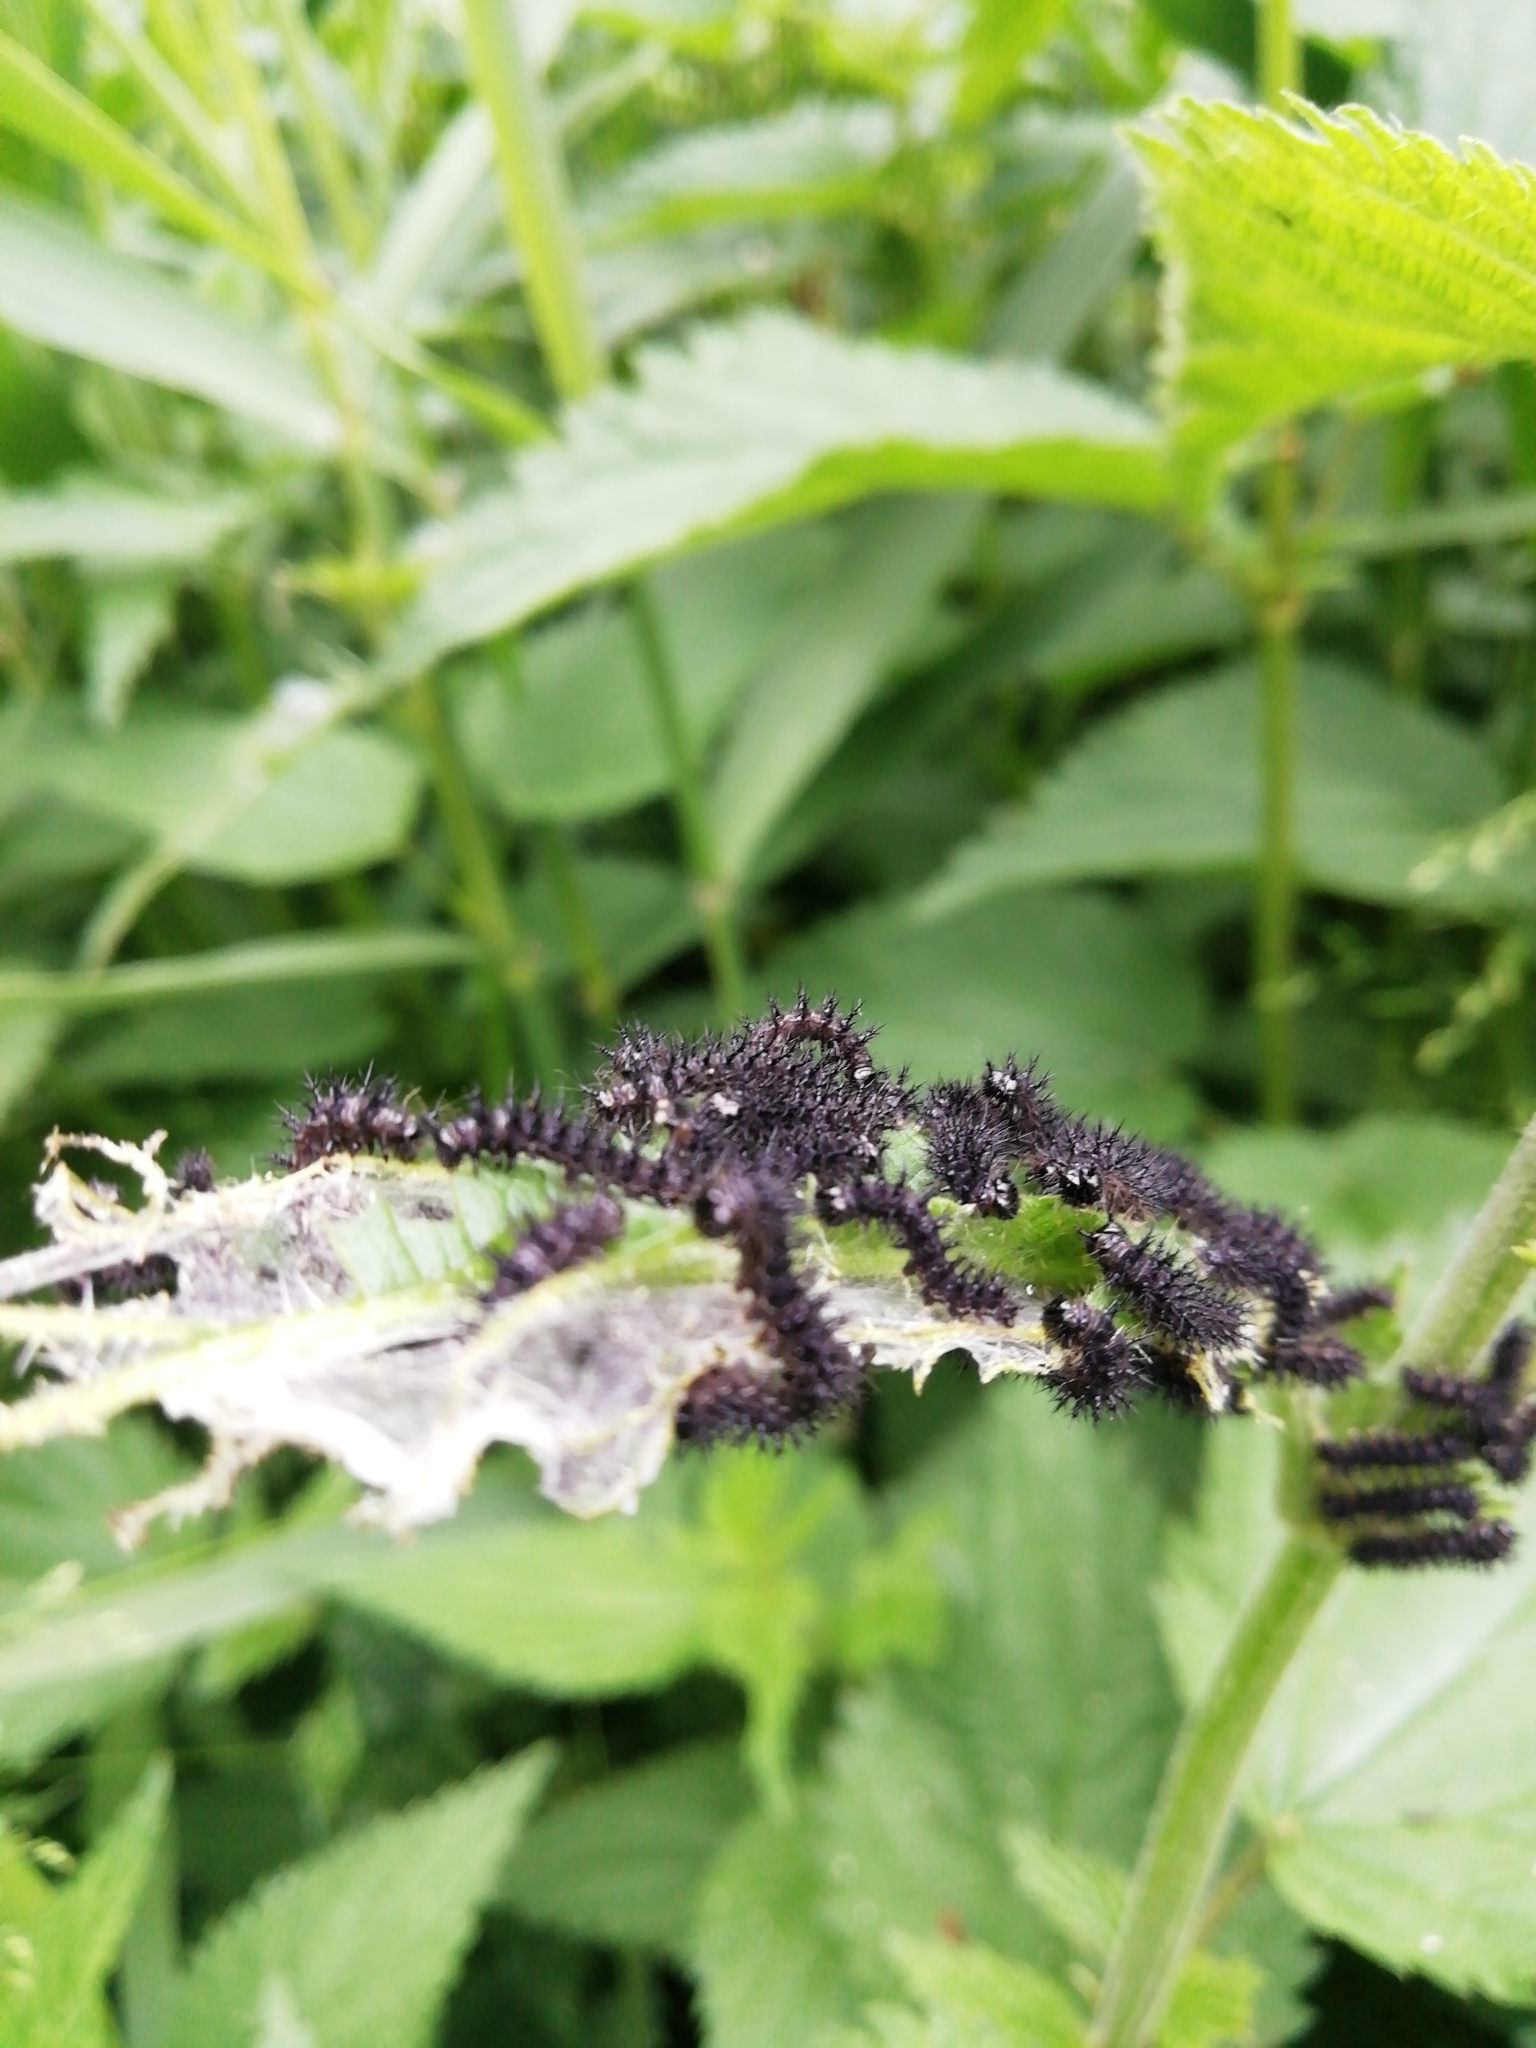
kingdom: Animalia
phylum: Arthropoda
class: Insecta
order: Lepidoptera
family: Nymphalidae
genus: Araschnia
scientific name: Araschnia levana
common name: Map butterfly
